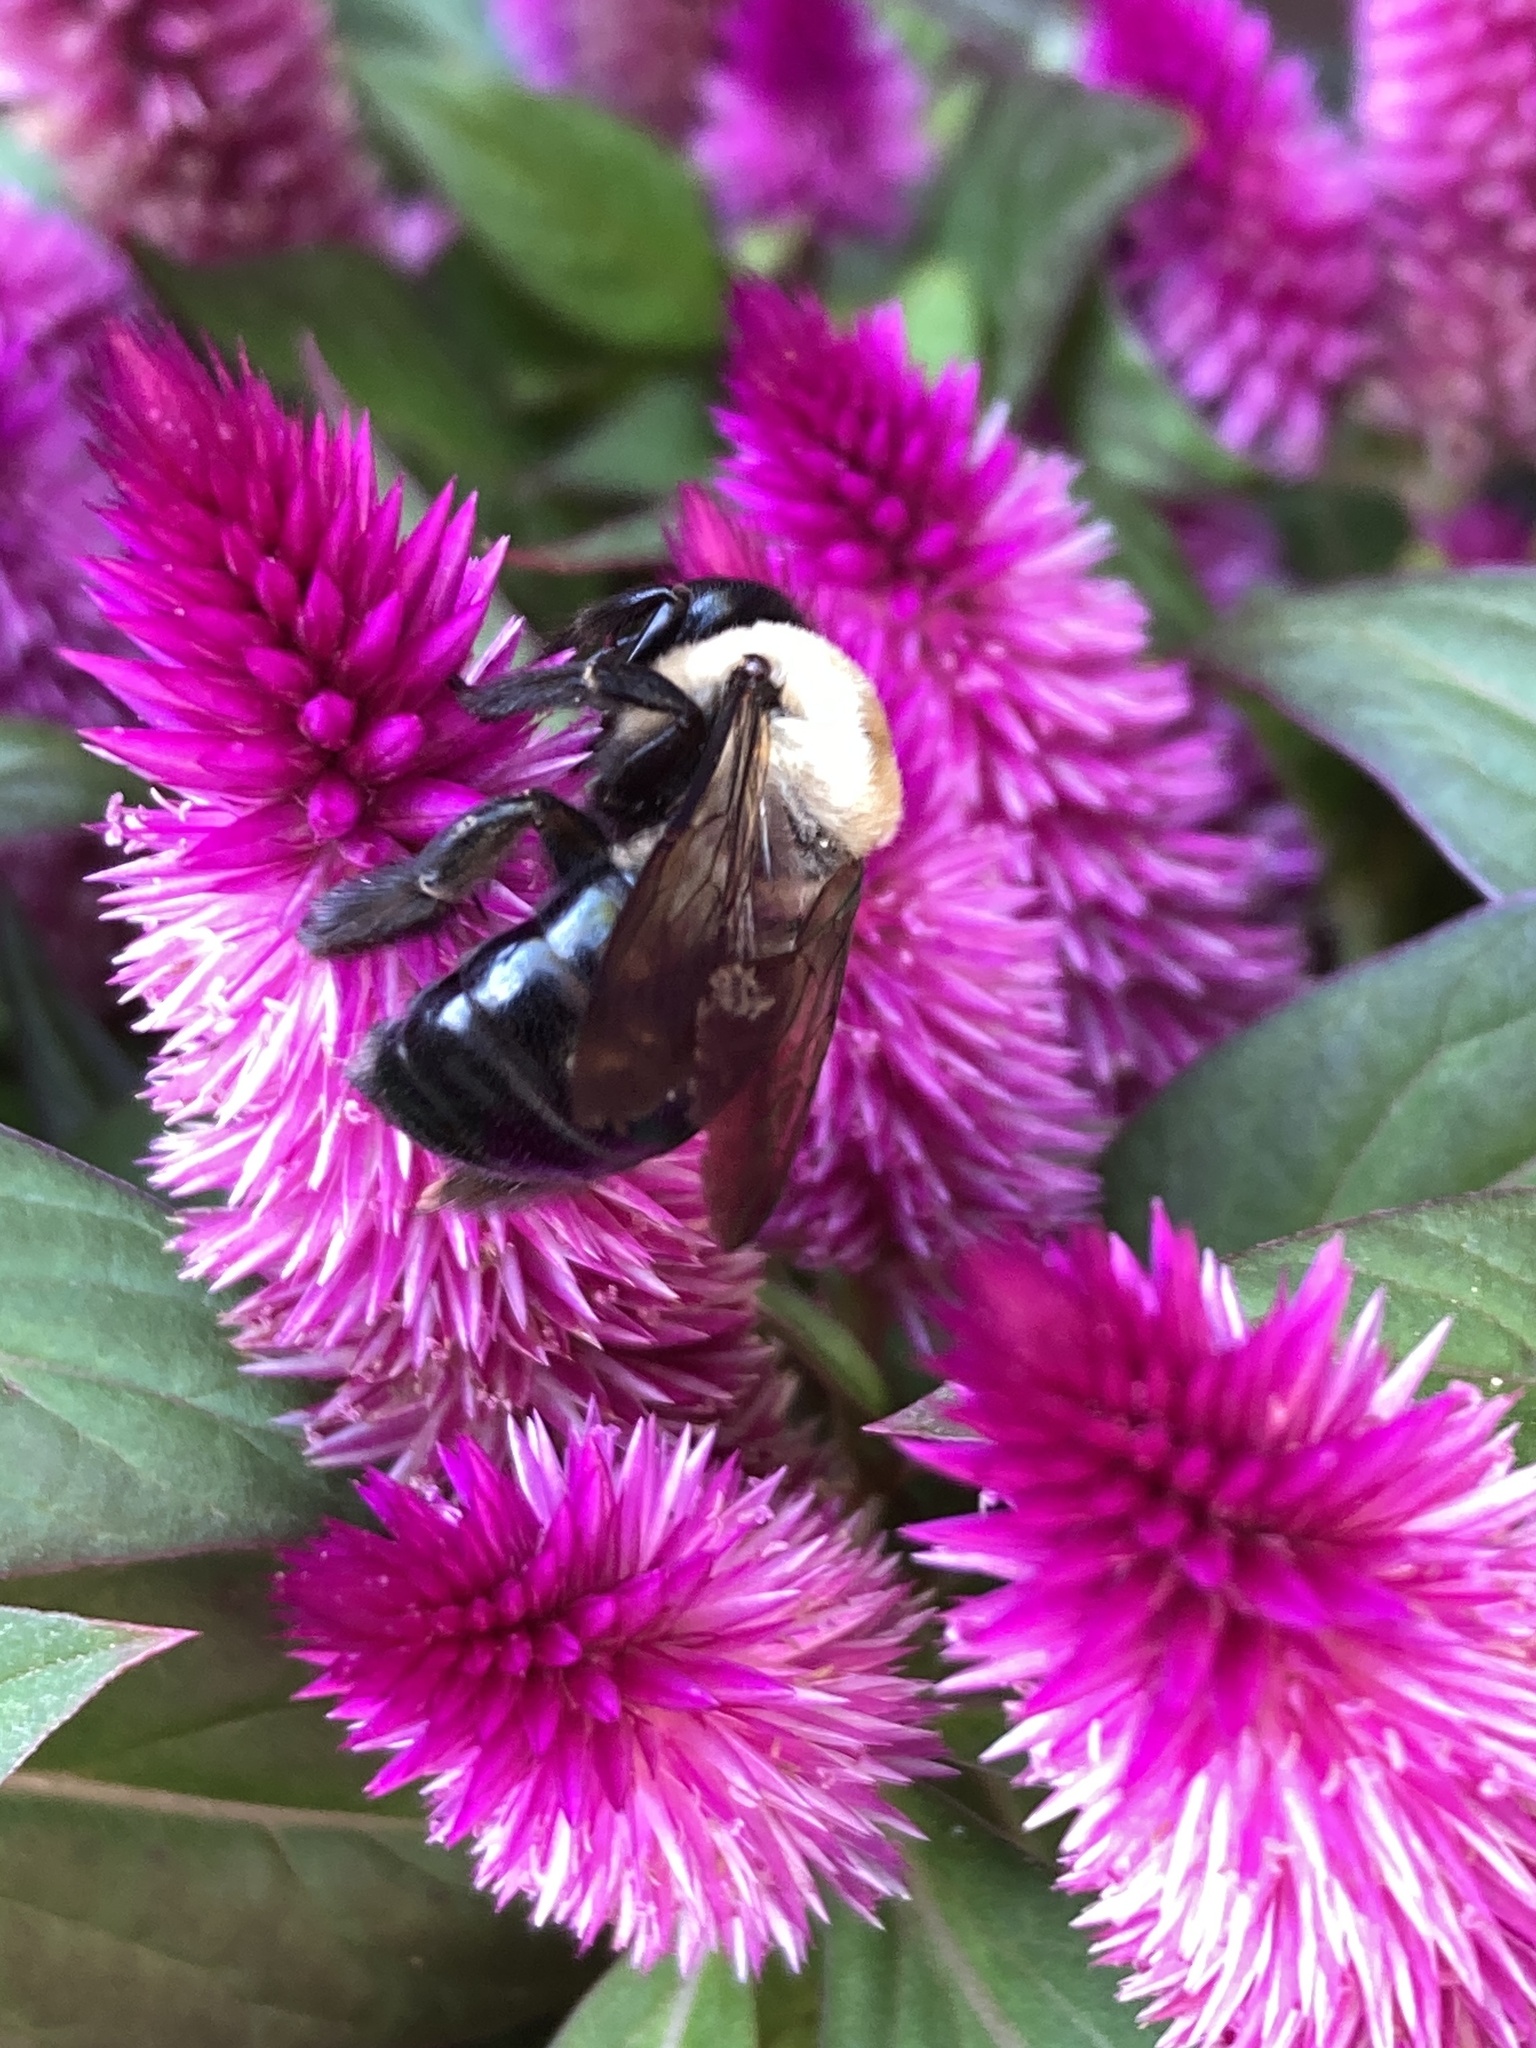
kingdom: Animalia
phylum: Arthropoda
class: Insecta
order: Hymenoptera
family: Apidae
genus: Xylocopa
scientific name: Xylocopa virginica
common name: Carpenter bee
